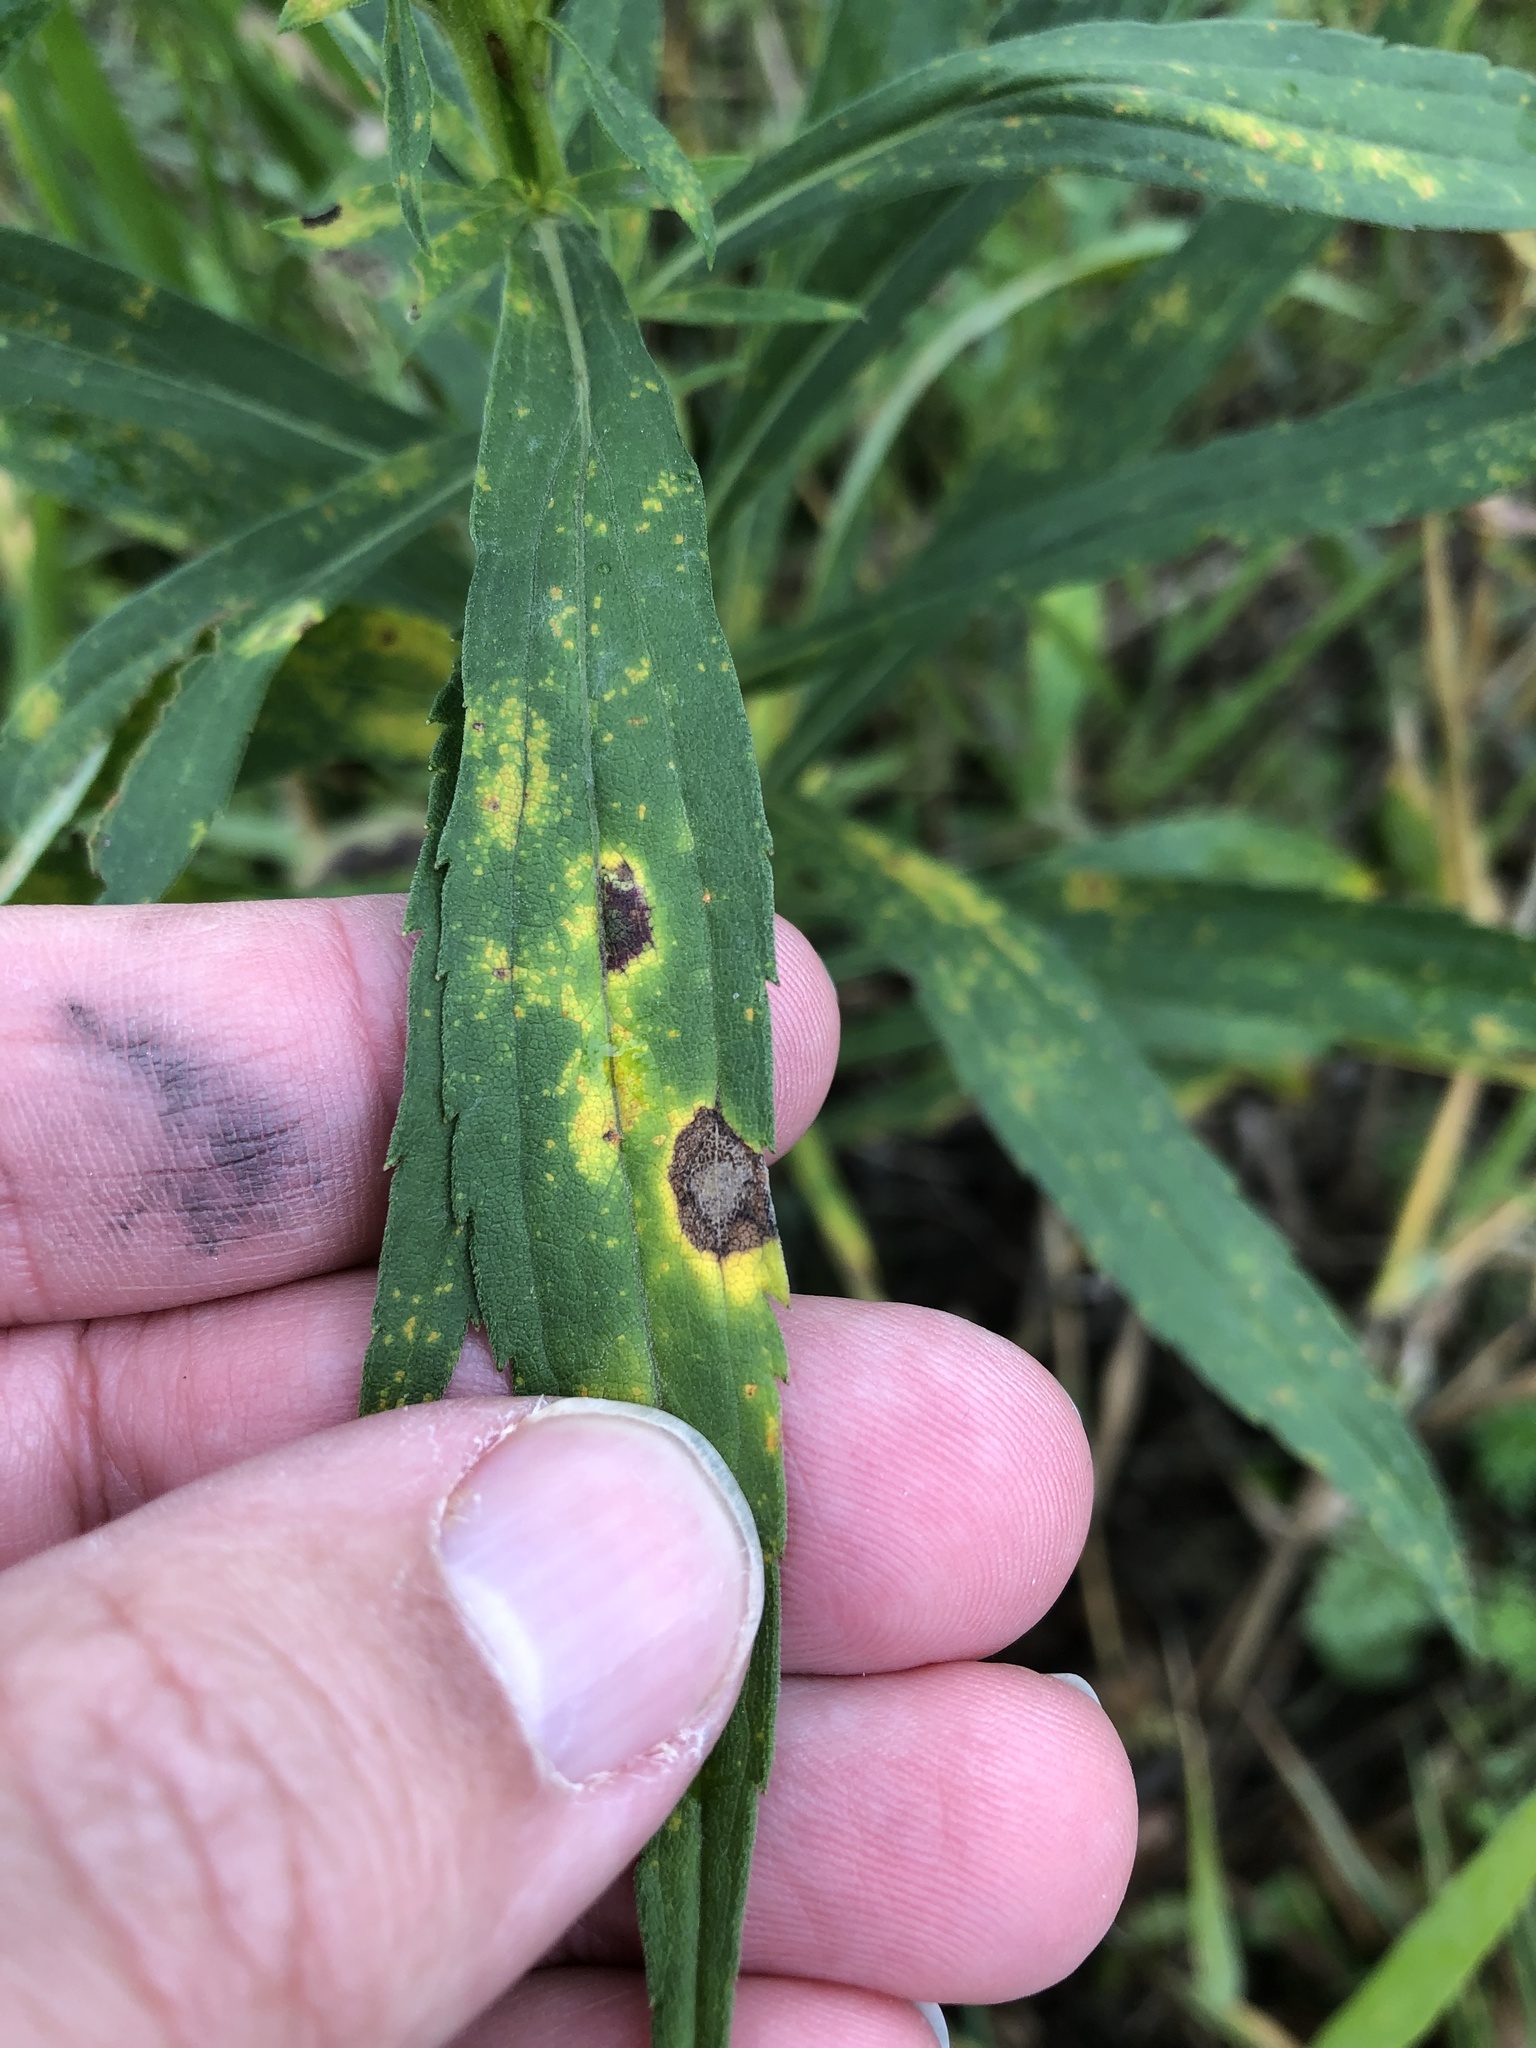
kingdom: Animalia
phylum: Arthropoda
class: Insecta
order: Diptera
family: Cecidomyiidae
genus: Asteromyia
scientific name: Asteromyia carbonifera
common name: Carbonifera goldenrod gall midge
